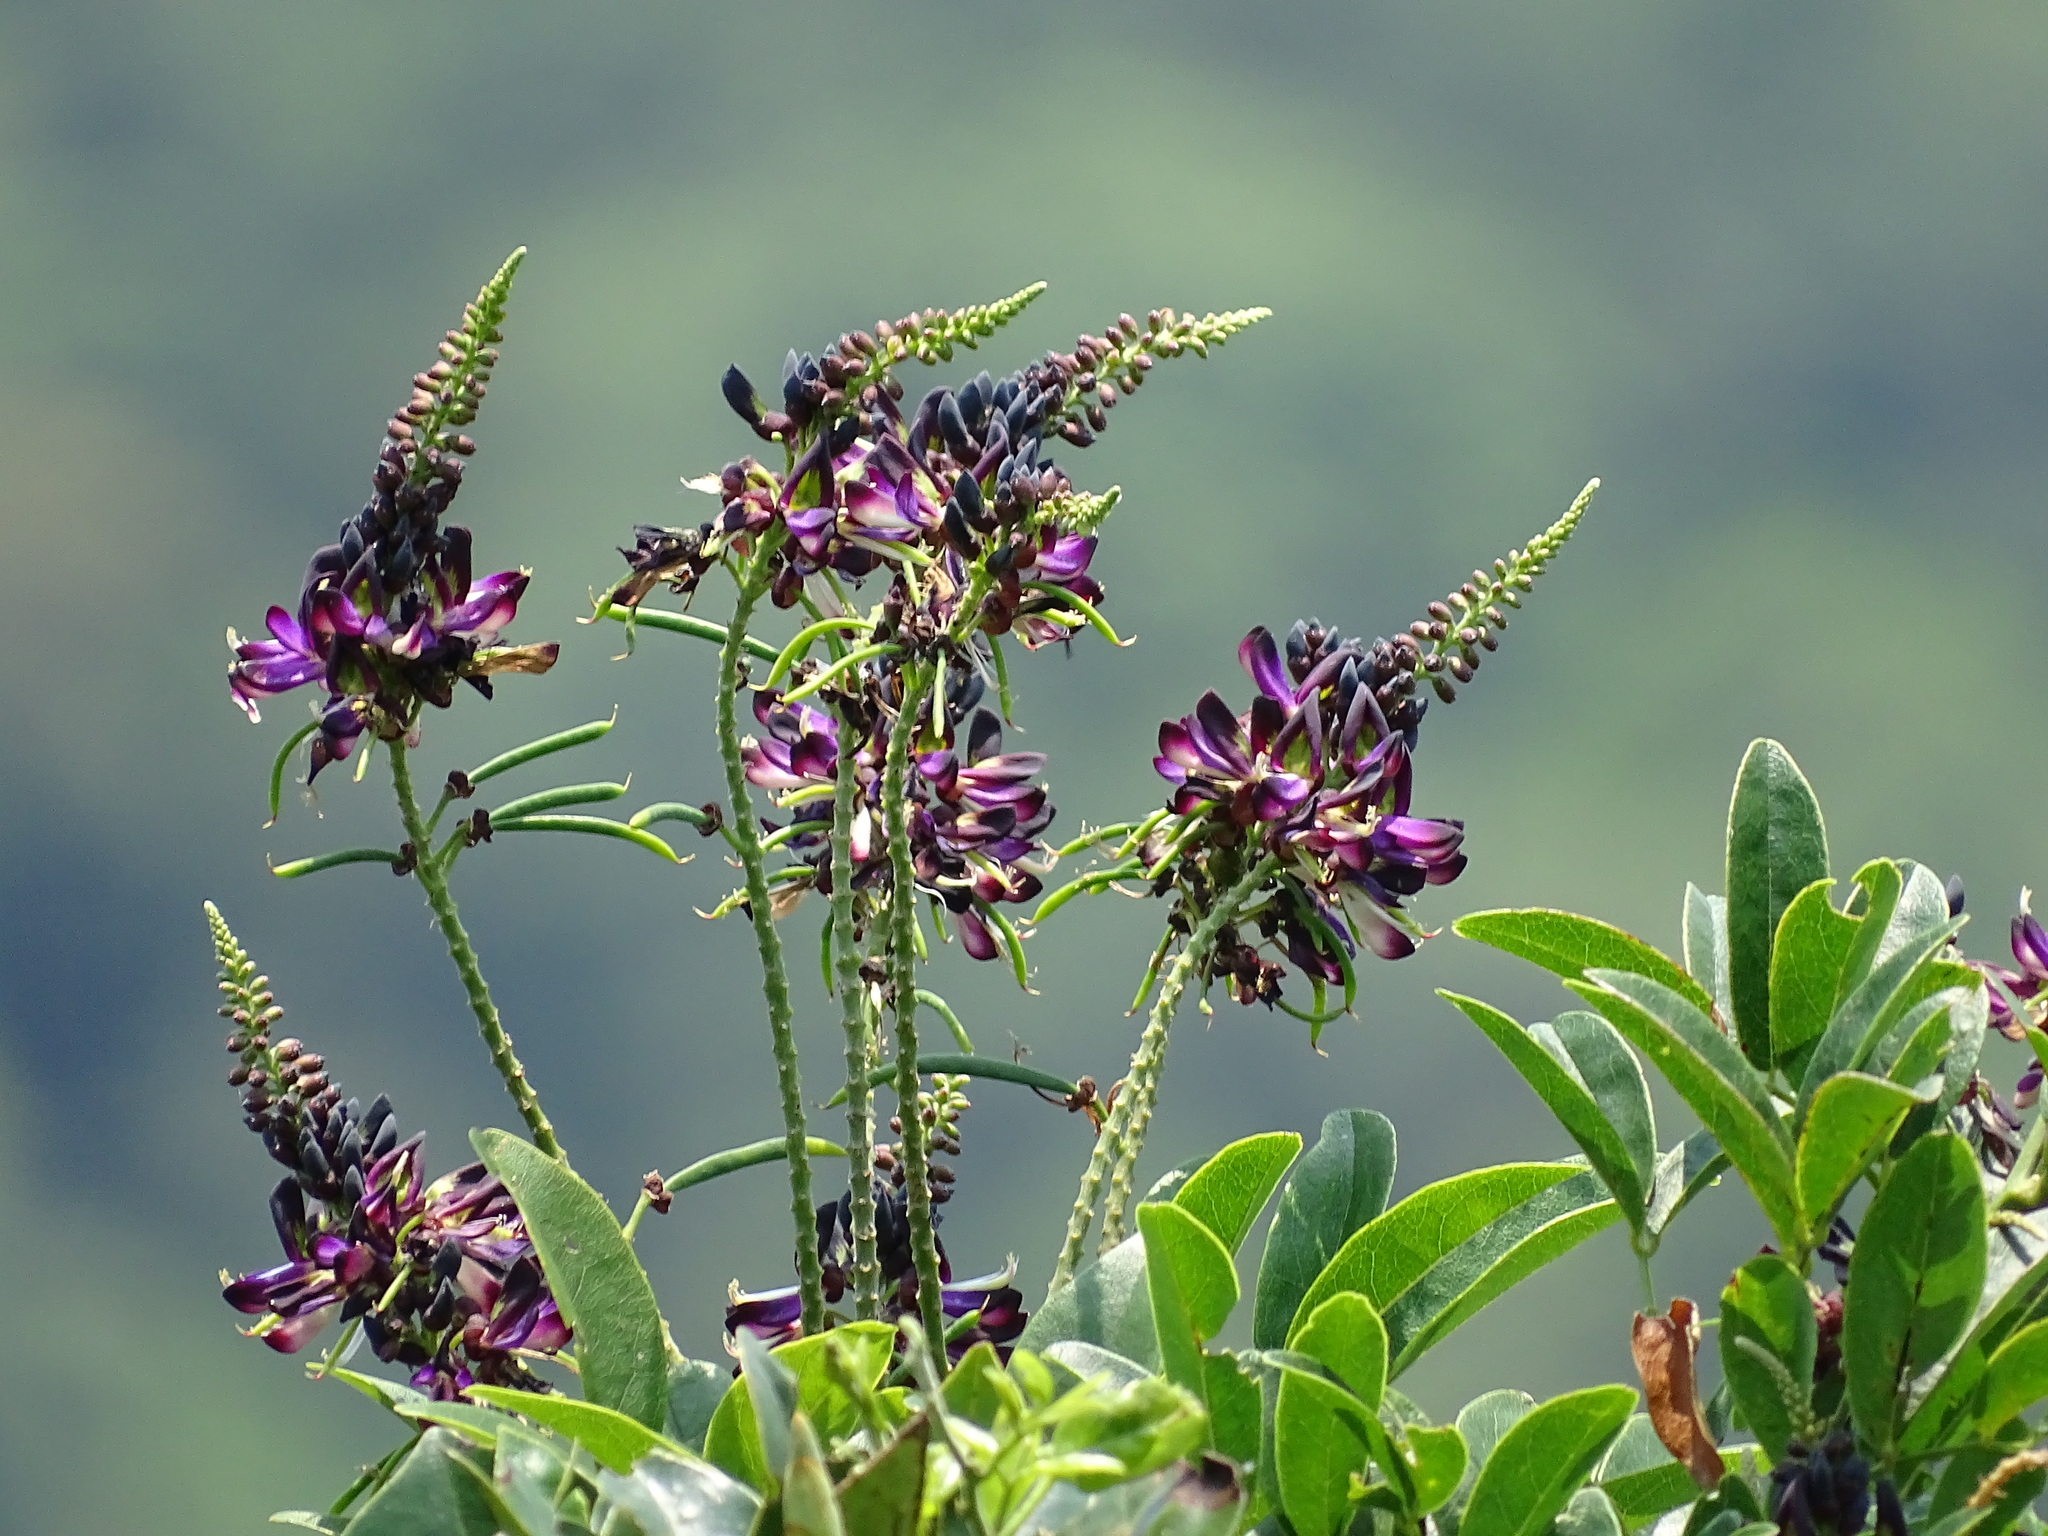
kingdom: Plantae
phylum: Tracheophyta
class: Magnoliopsida
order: Fabales
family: Fabaceae
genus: Wisteriopsis
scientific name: Wisteriopsis reticulata
